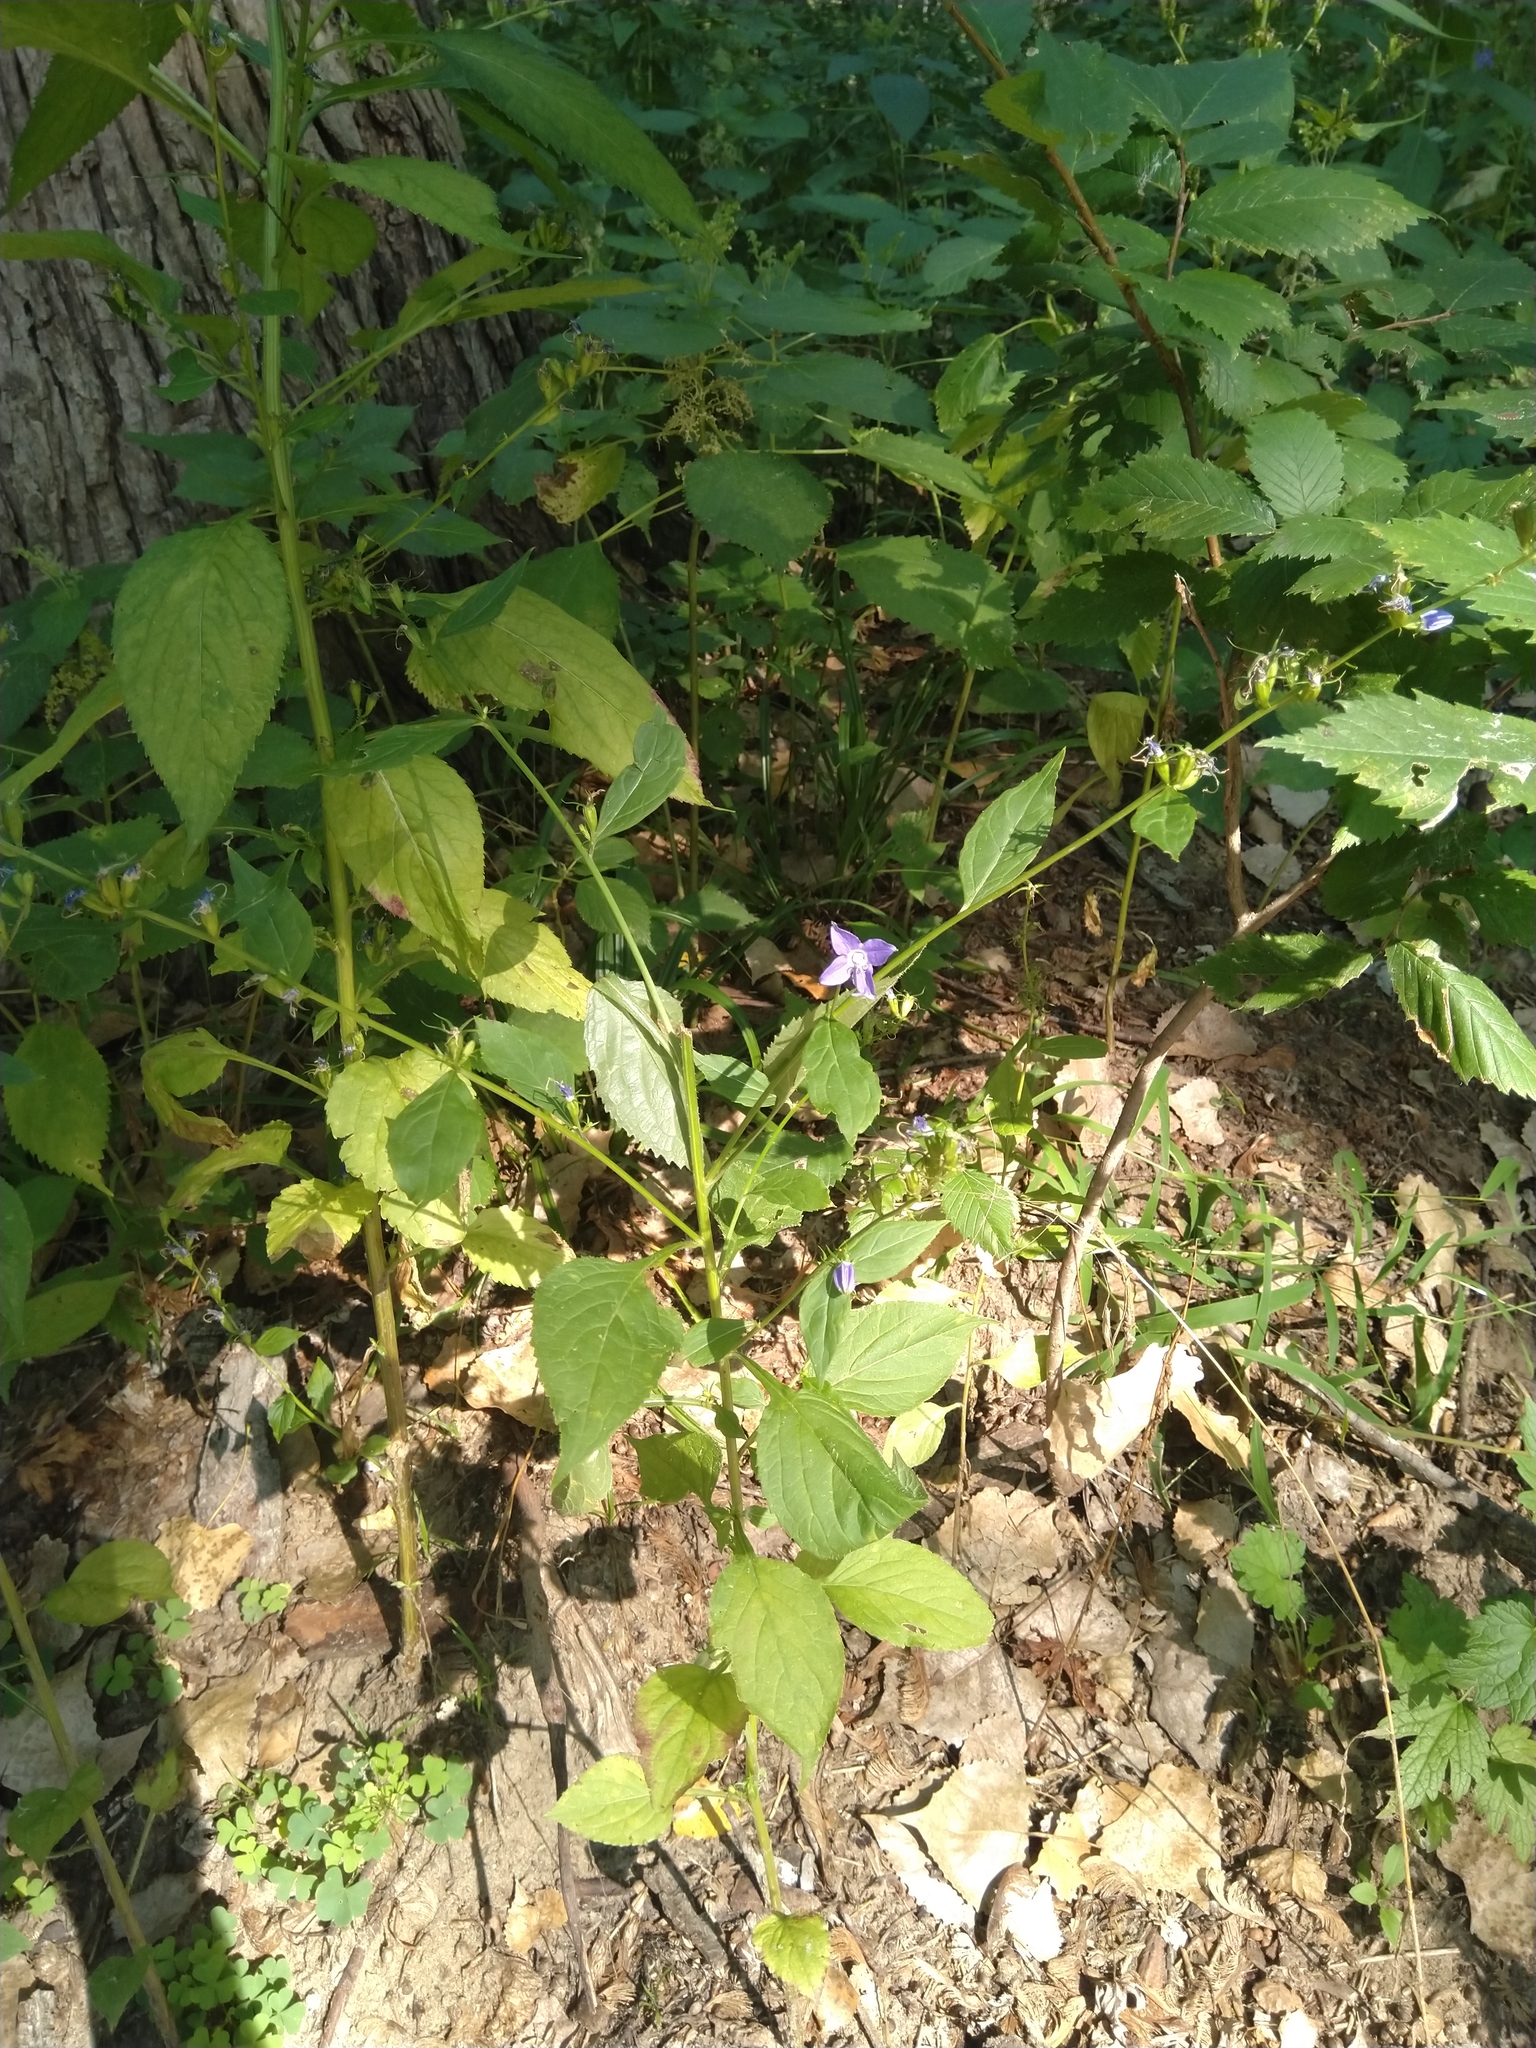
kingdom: Plantae
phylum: Tracheophyta
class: Magnoliopsida
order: Asterales
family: Campanulaceae
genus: Campanulastrum
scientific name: Campanulastrum americanum
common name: American bellflower
